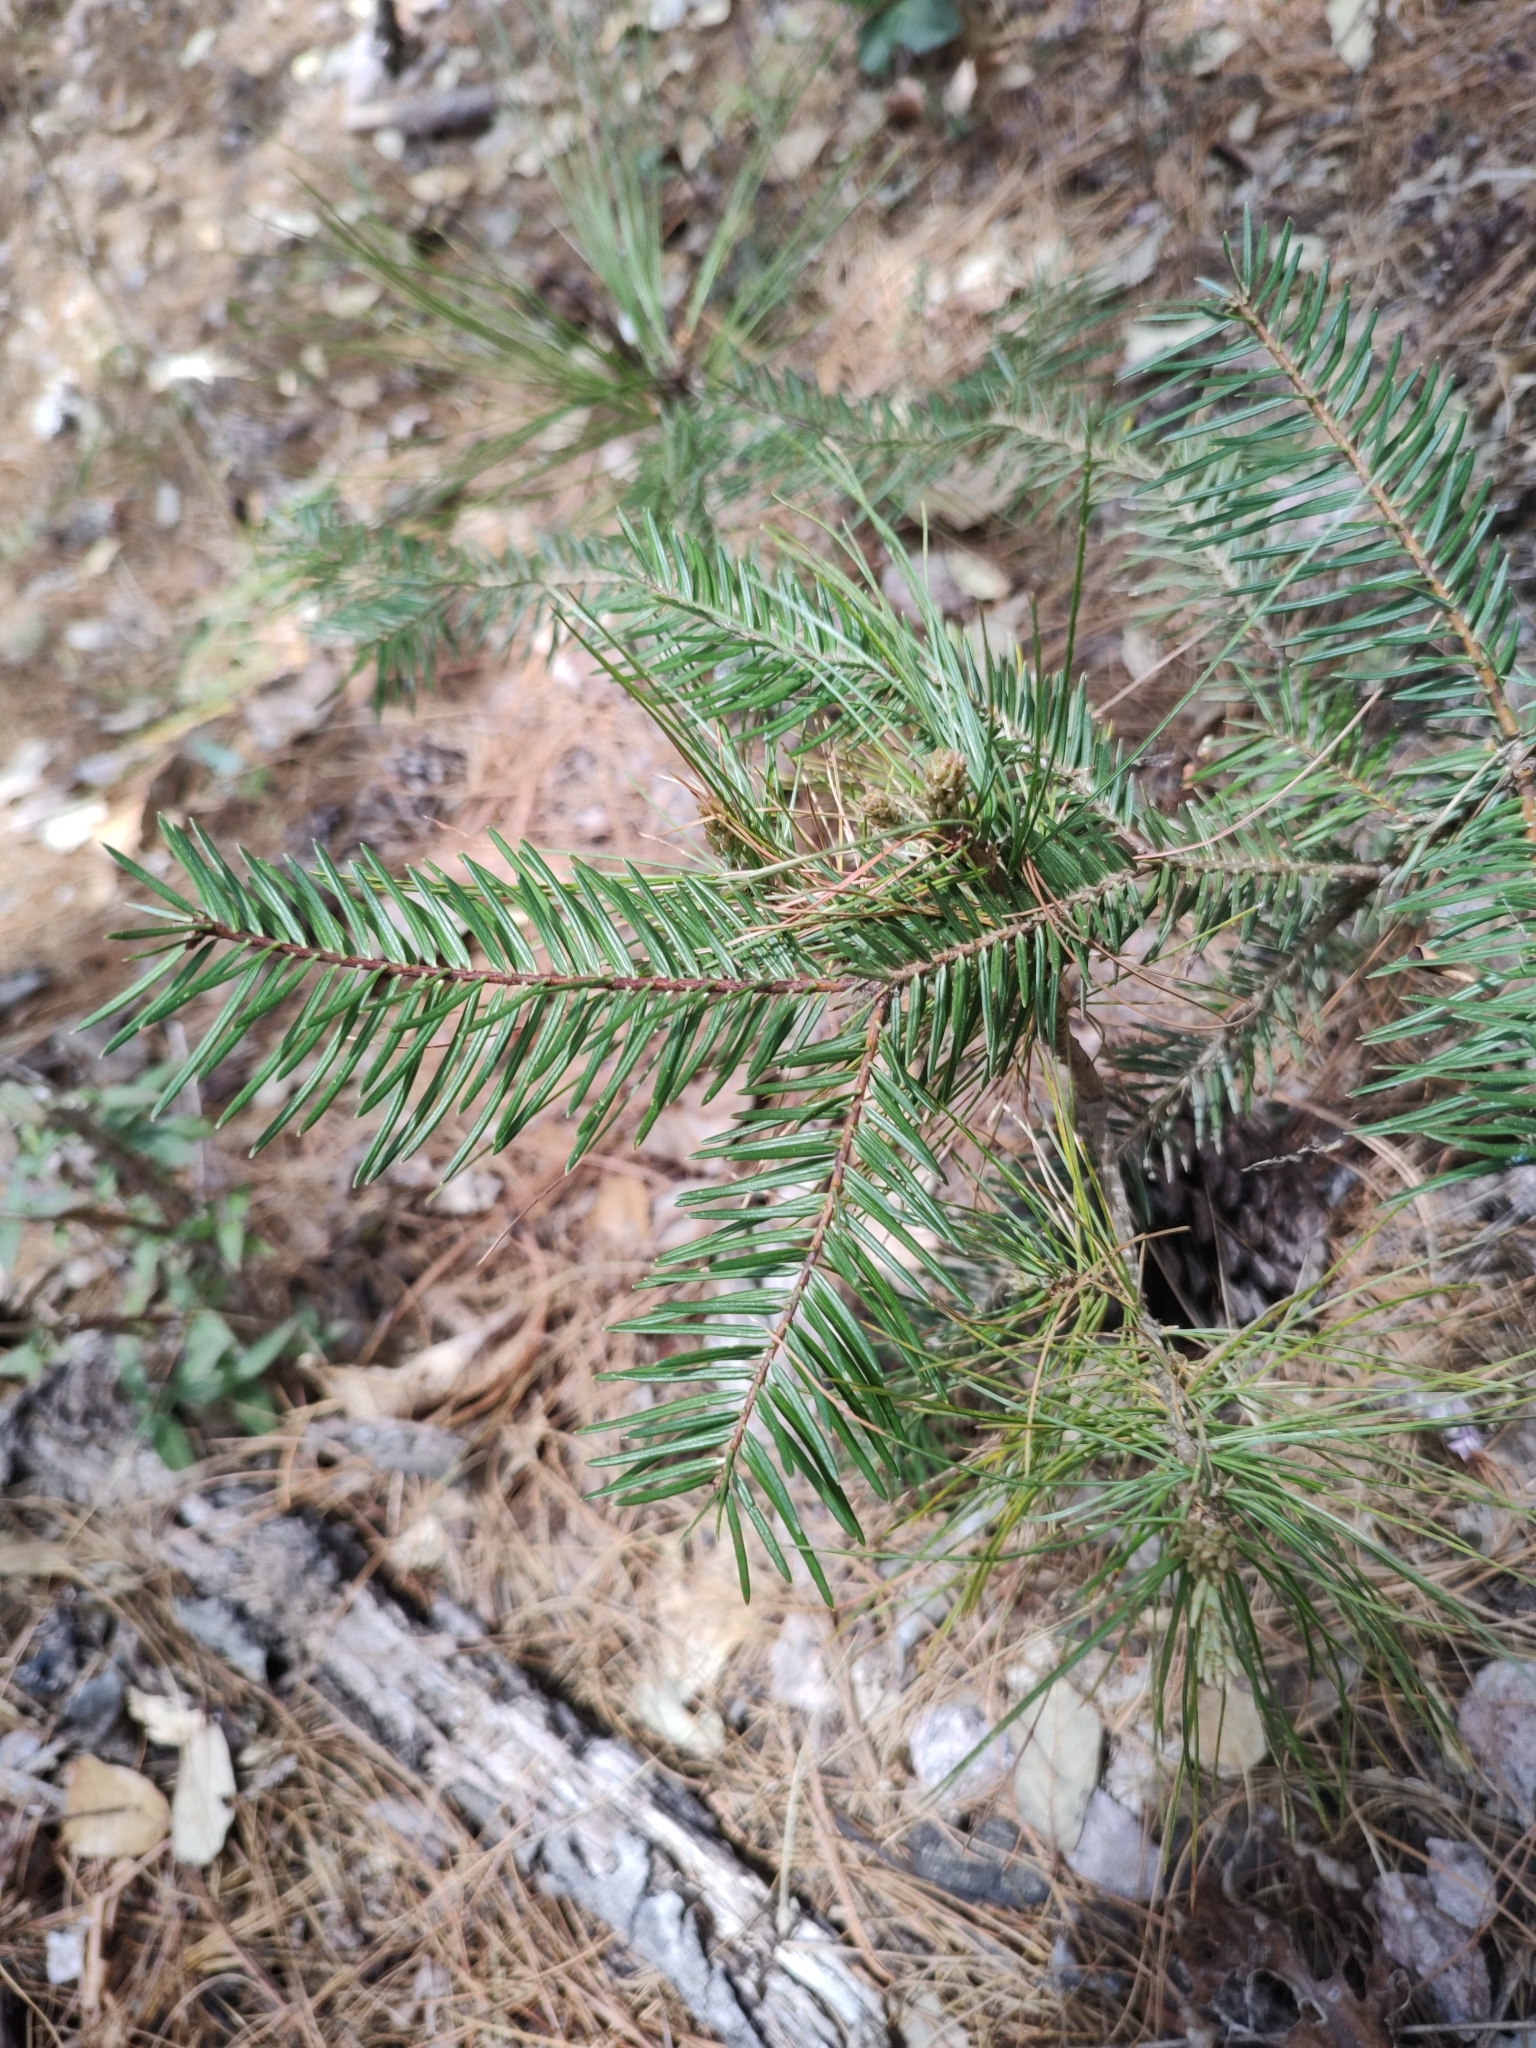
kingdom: Plantae
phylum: Tracheophyta
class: Pinopsida
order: Pinales
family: Pinaceae
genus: Pseudotsuga
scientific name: Pseudotsuga menziesii
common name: Douglas fir
